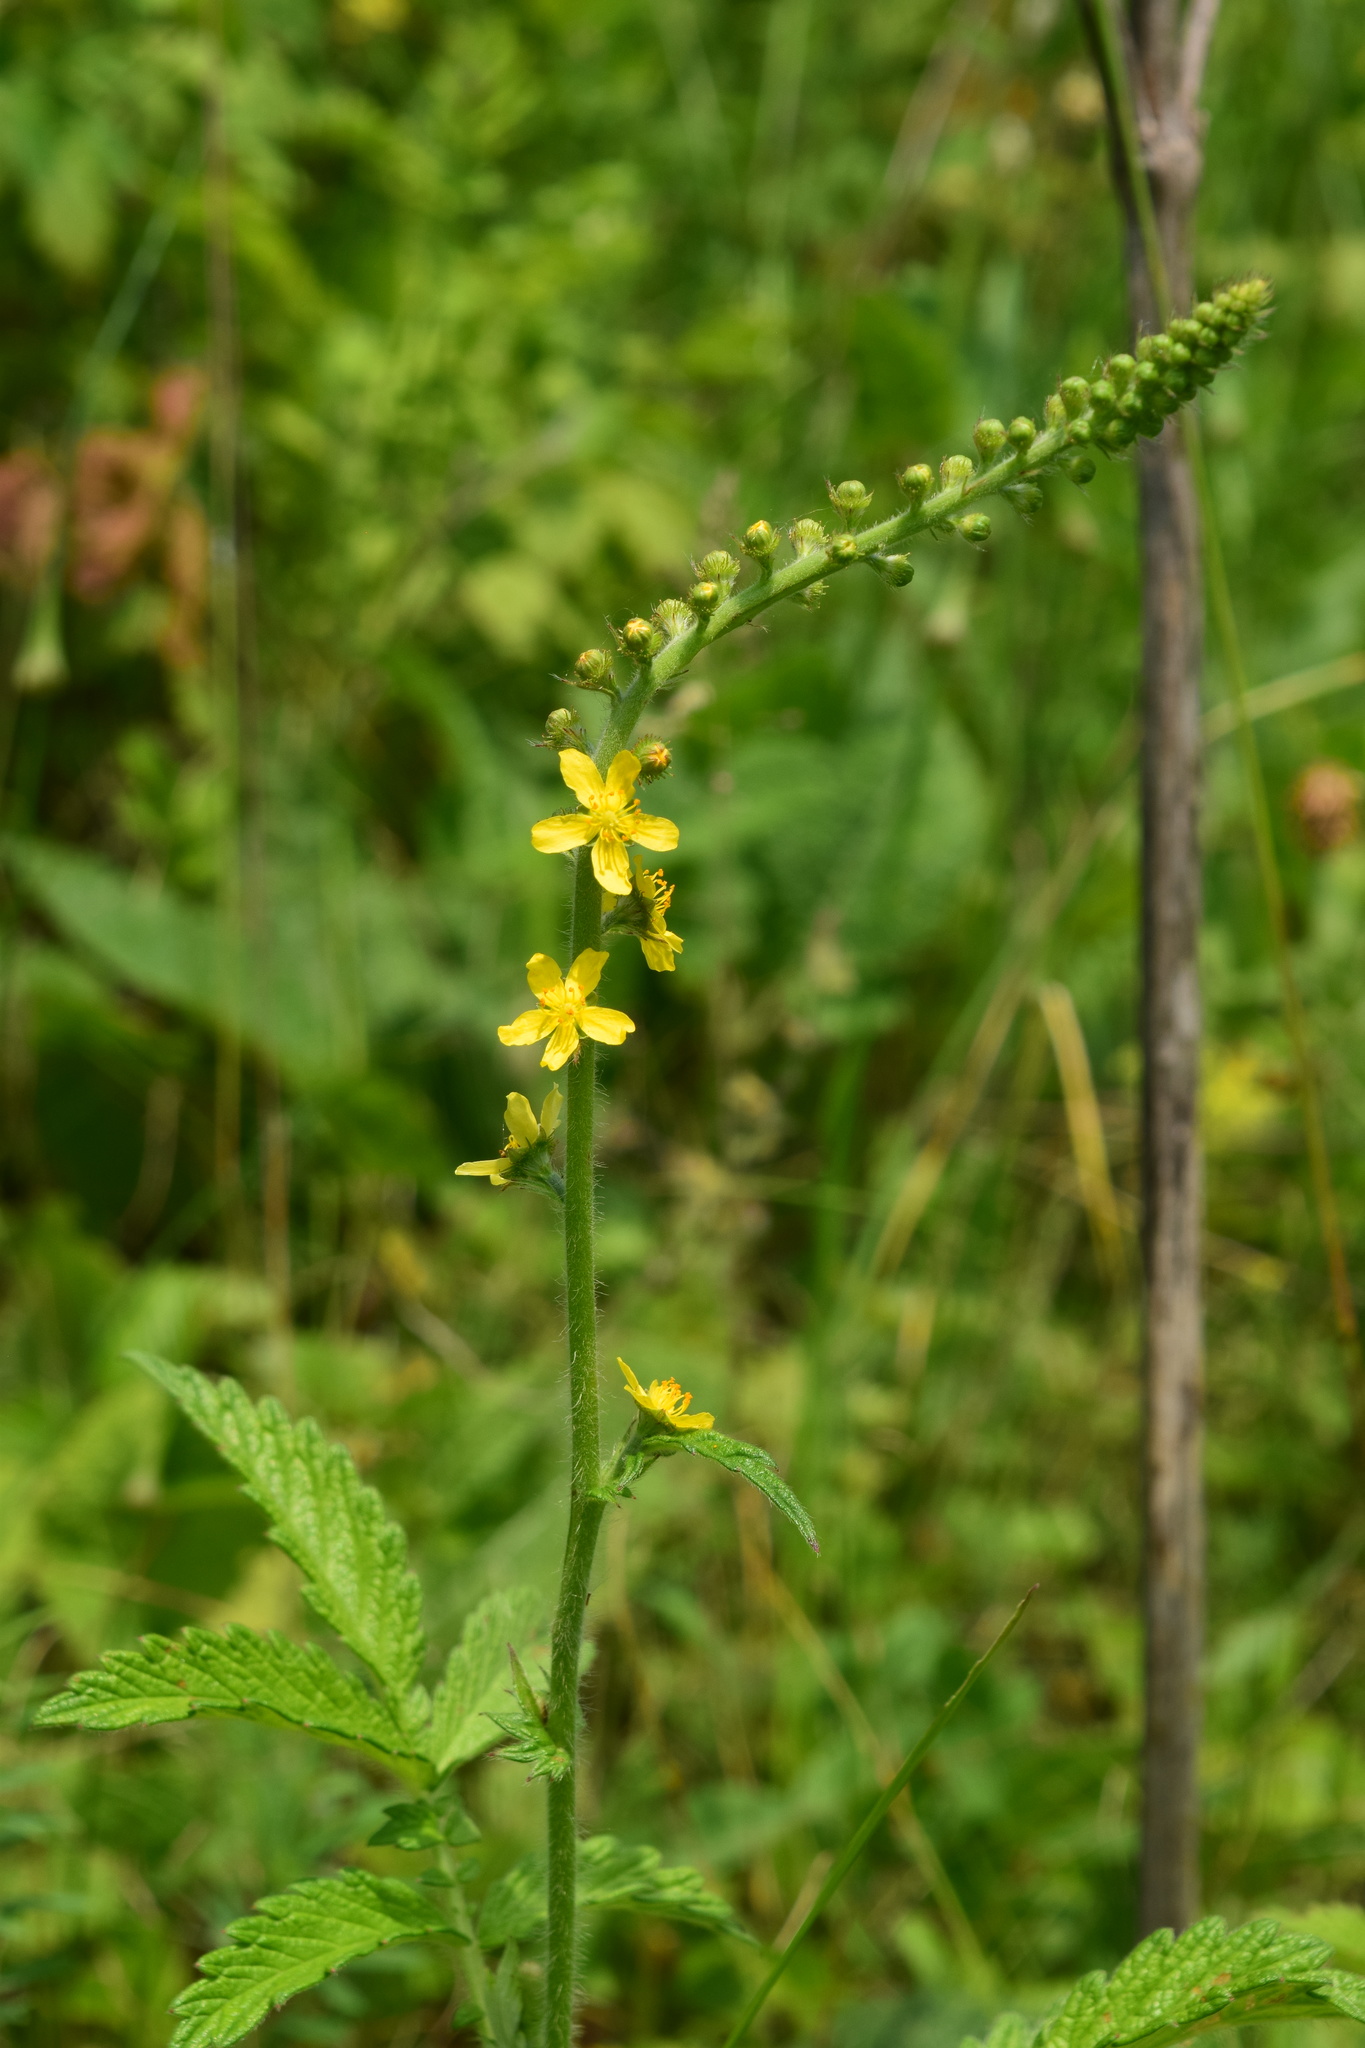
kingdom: Plantae
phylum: Tracheophyta
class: Magnoliopsida
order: Rosales
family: Rosaceae
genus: Agrimonia
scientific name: Agrimonia eupatoria
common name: Agrimony
